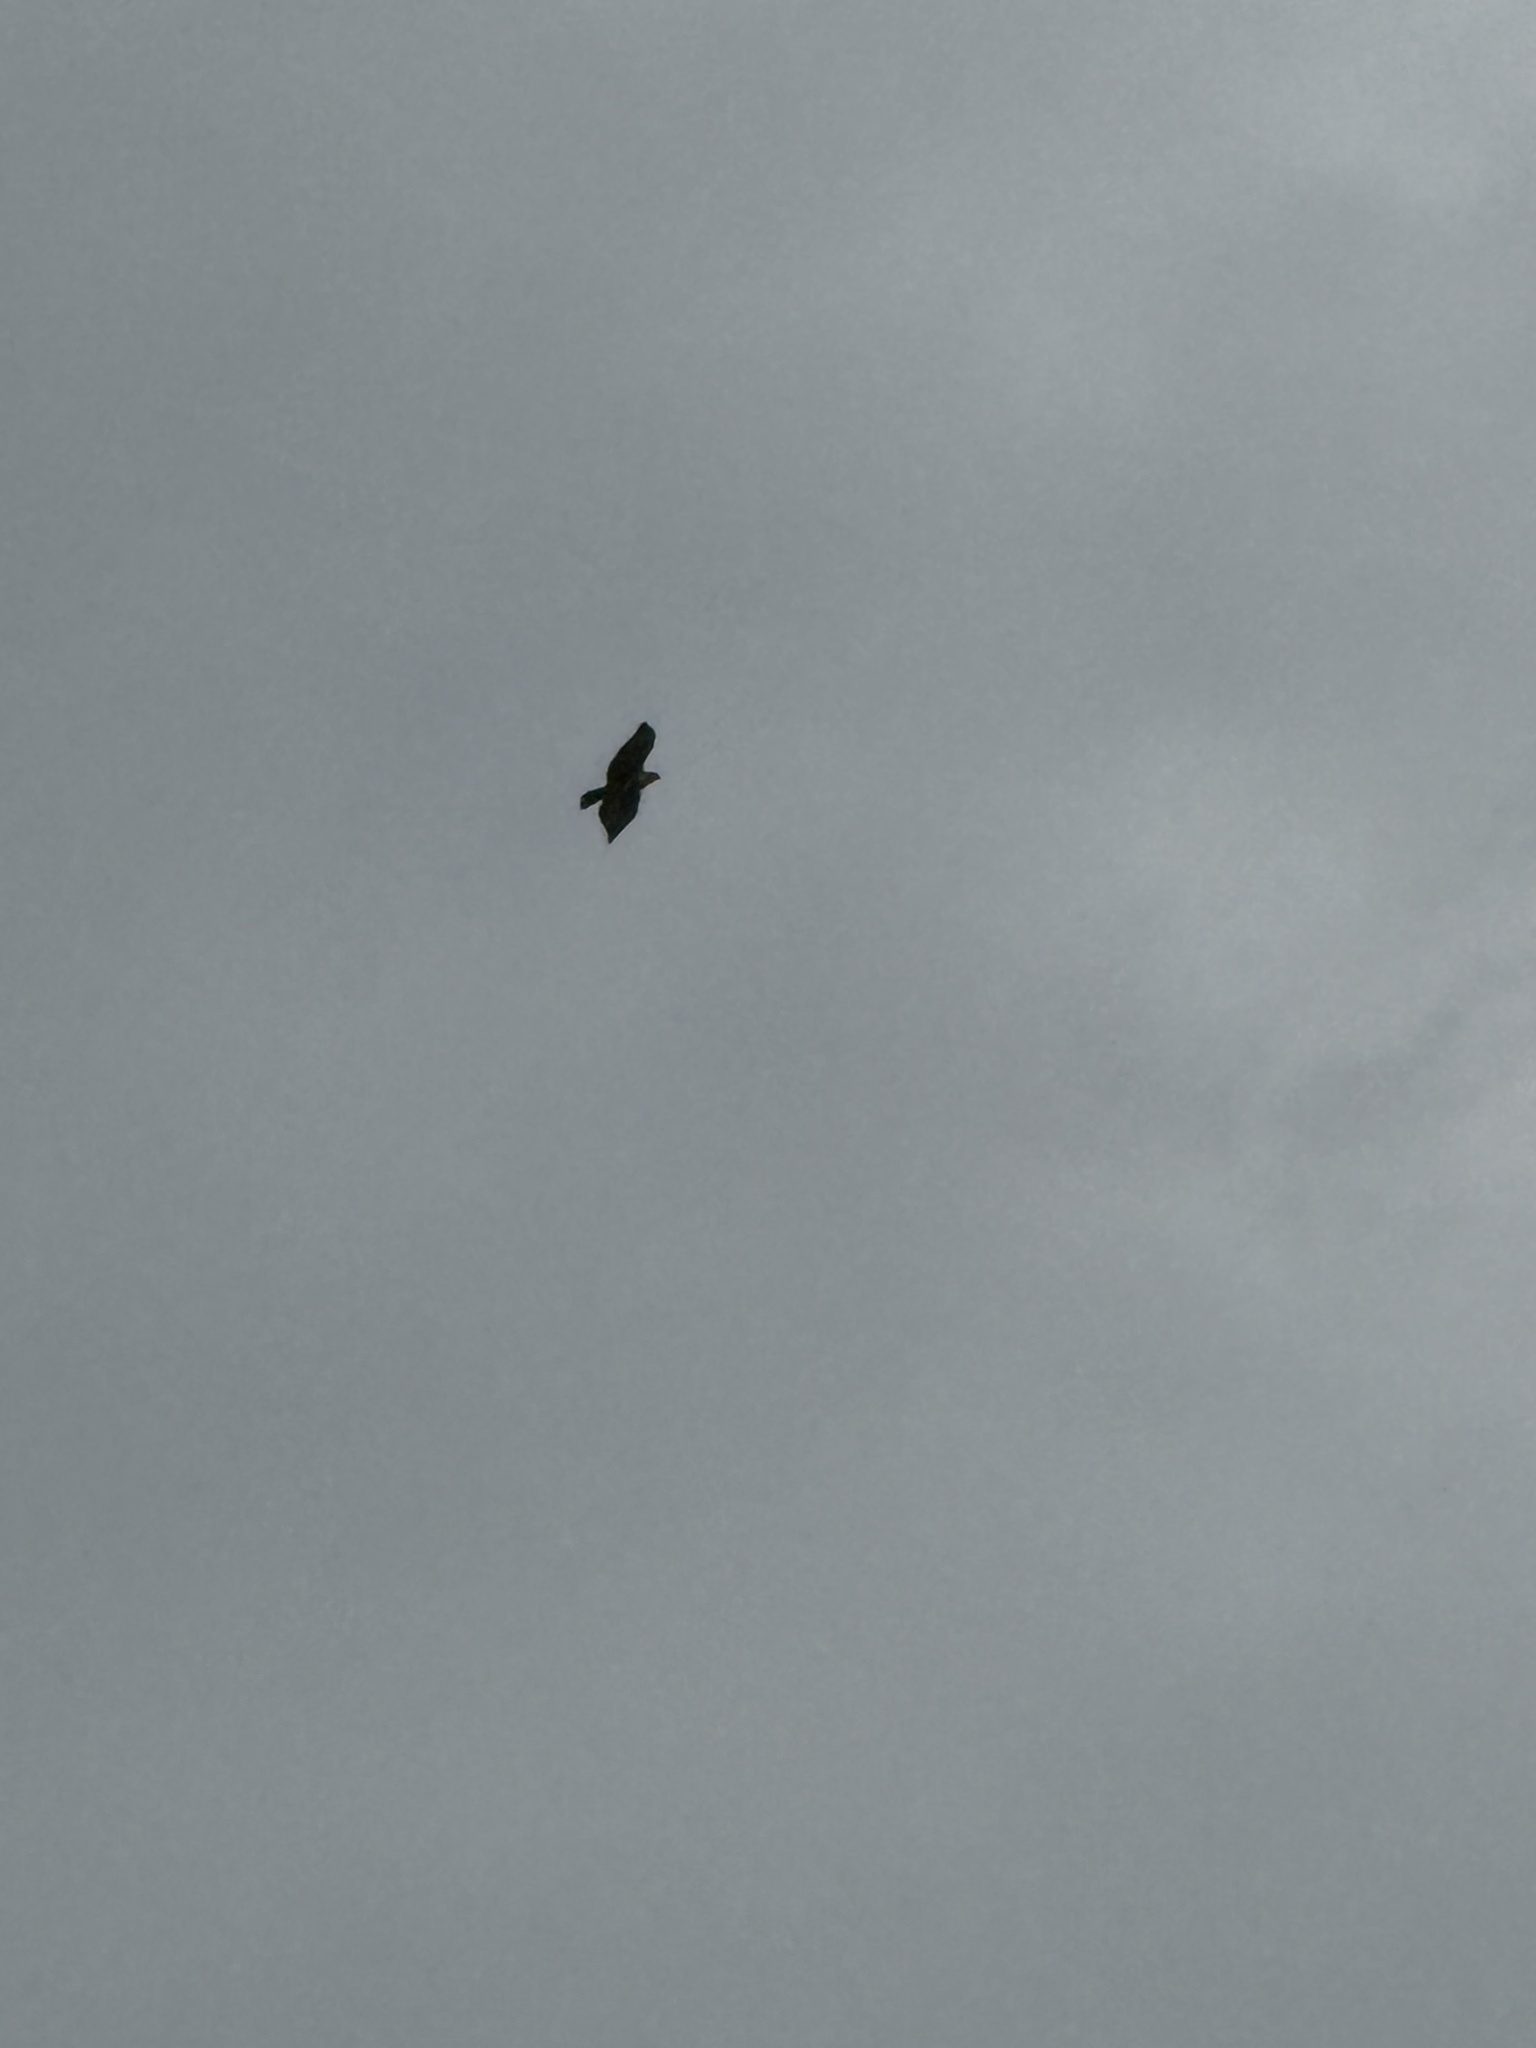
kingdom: Animalia
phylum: Chordata
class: Aves
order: Accipitriformes
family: Accipitridae
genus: Buteo
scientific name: Buteo jamaicensis
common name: Red-tailed hawk
